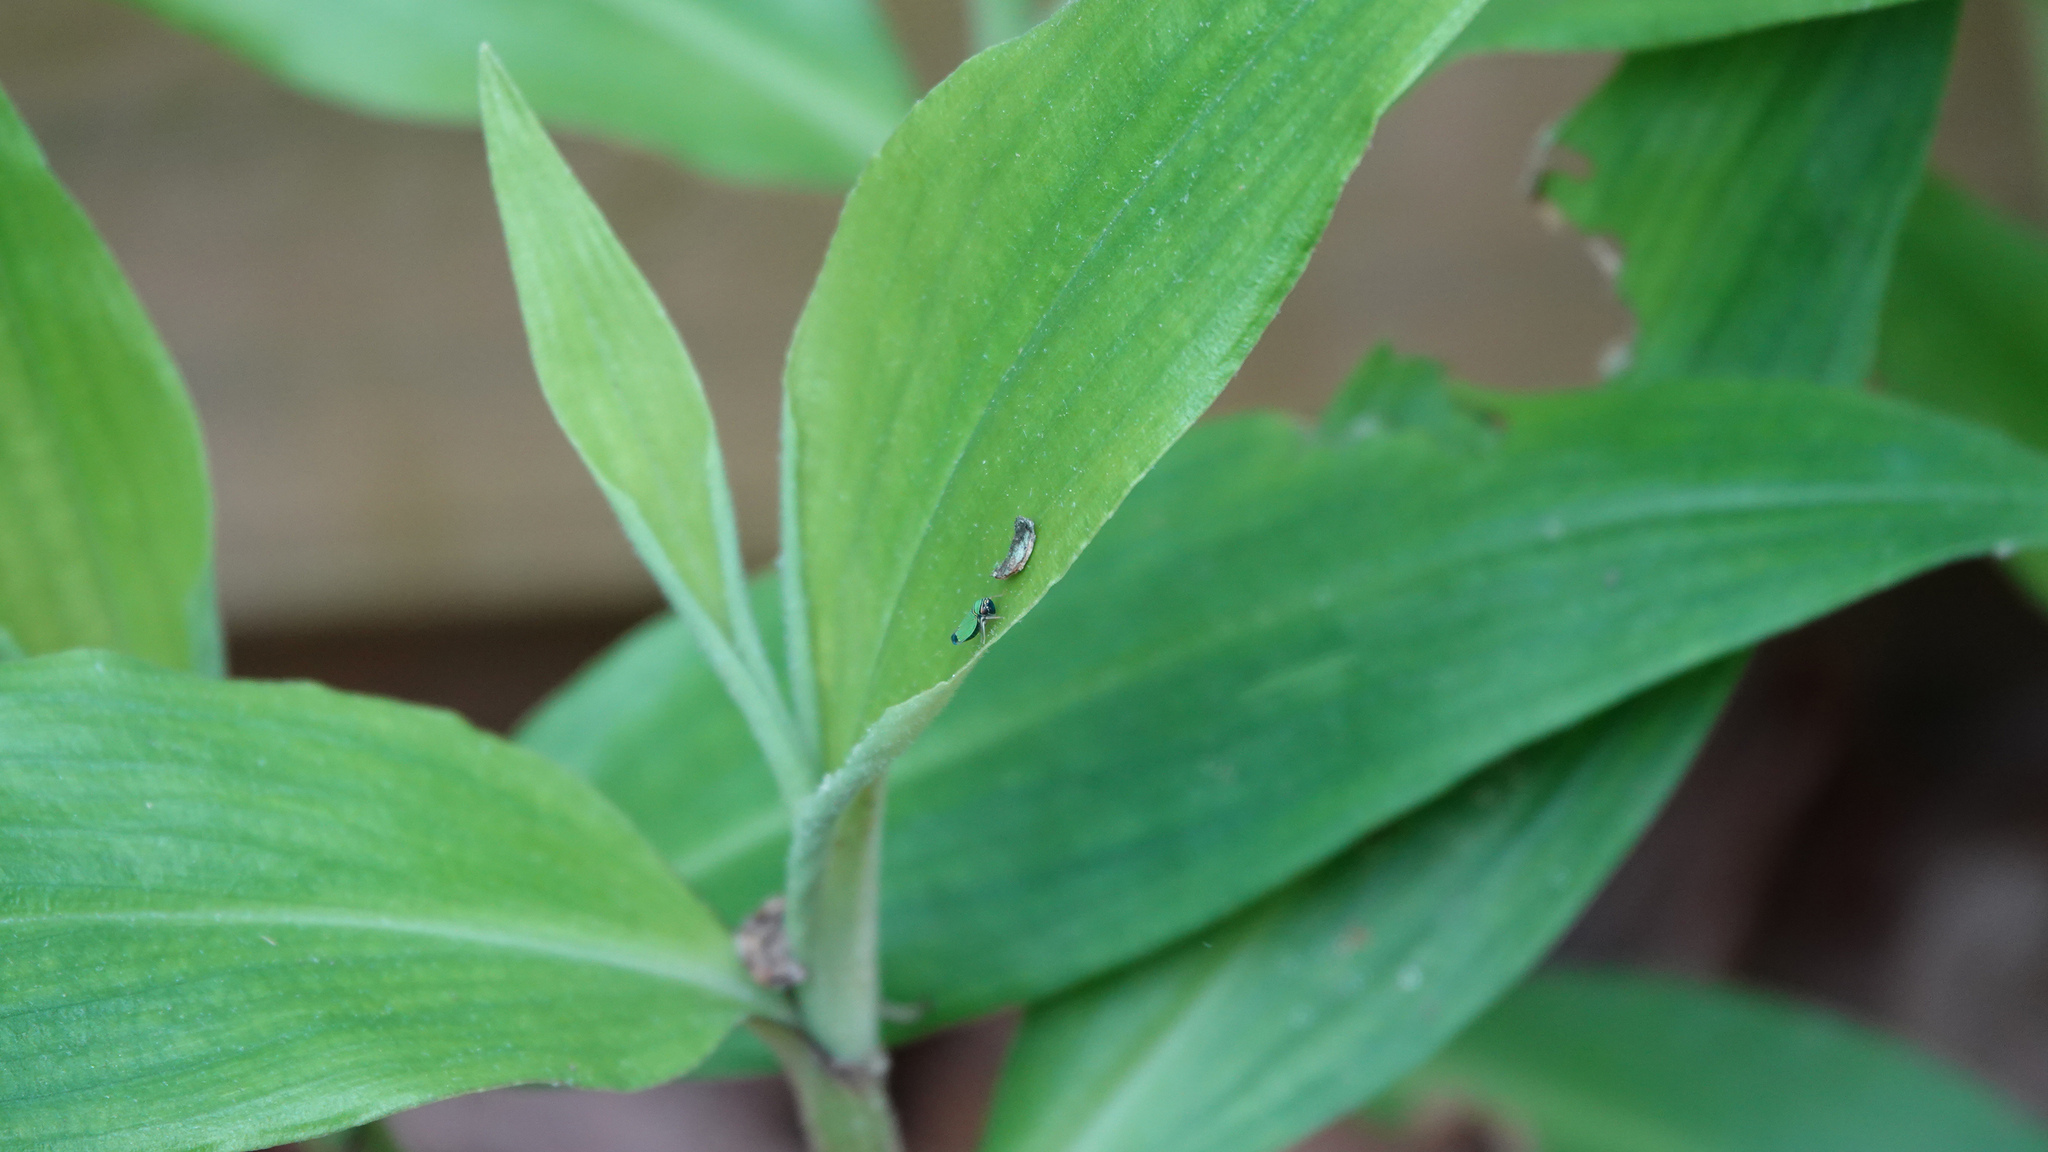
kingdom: Animalia
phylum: Arthropoda
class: Insecta
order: Hemiptera
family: Cicadellidae
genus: Tylozygus
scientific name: Tylozygus geometricus
